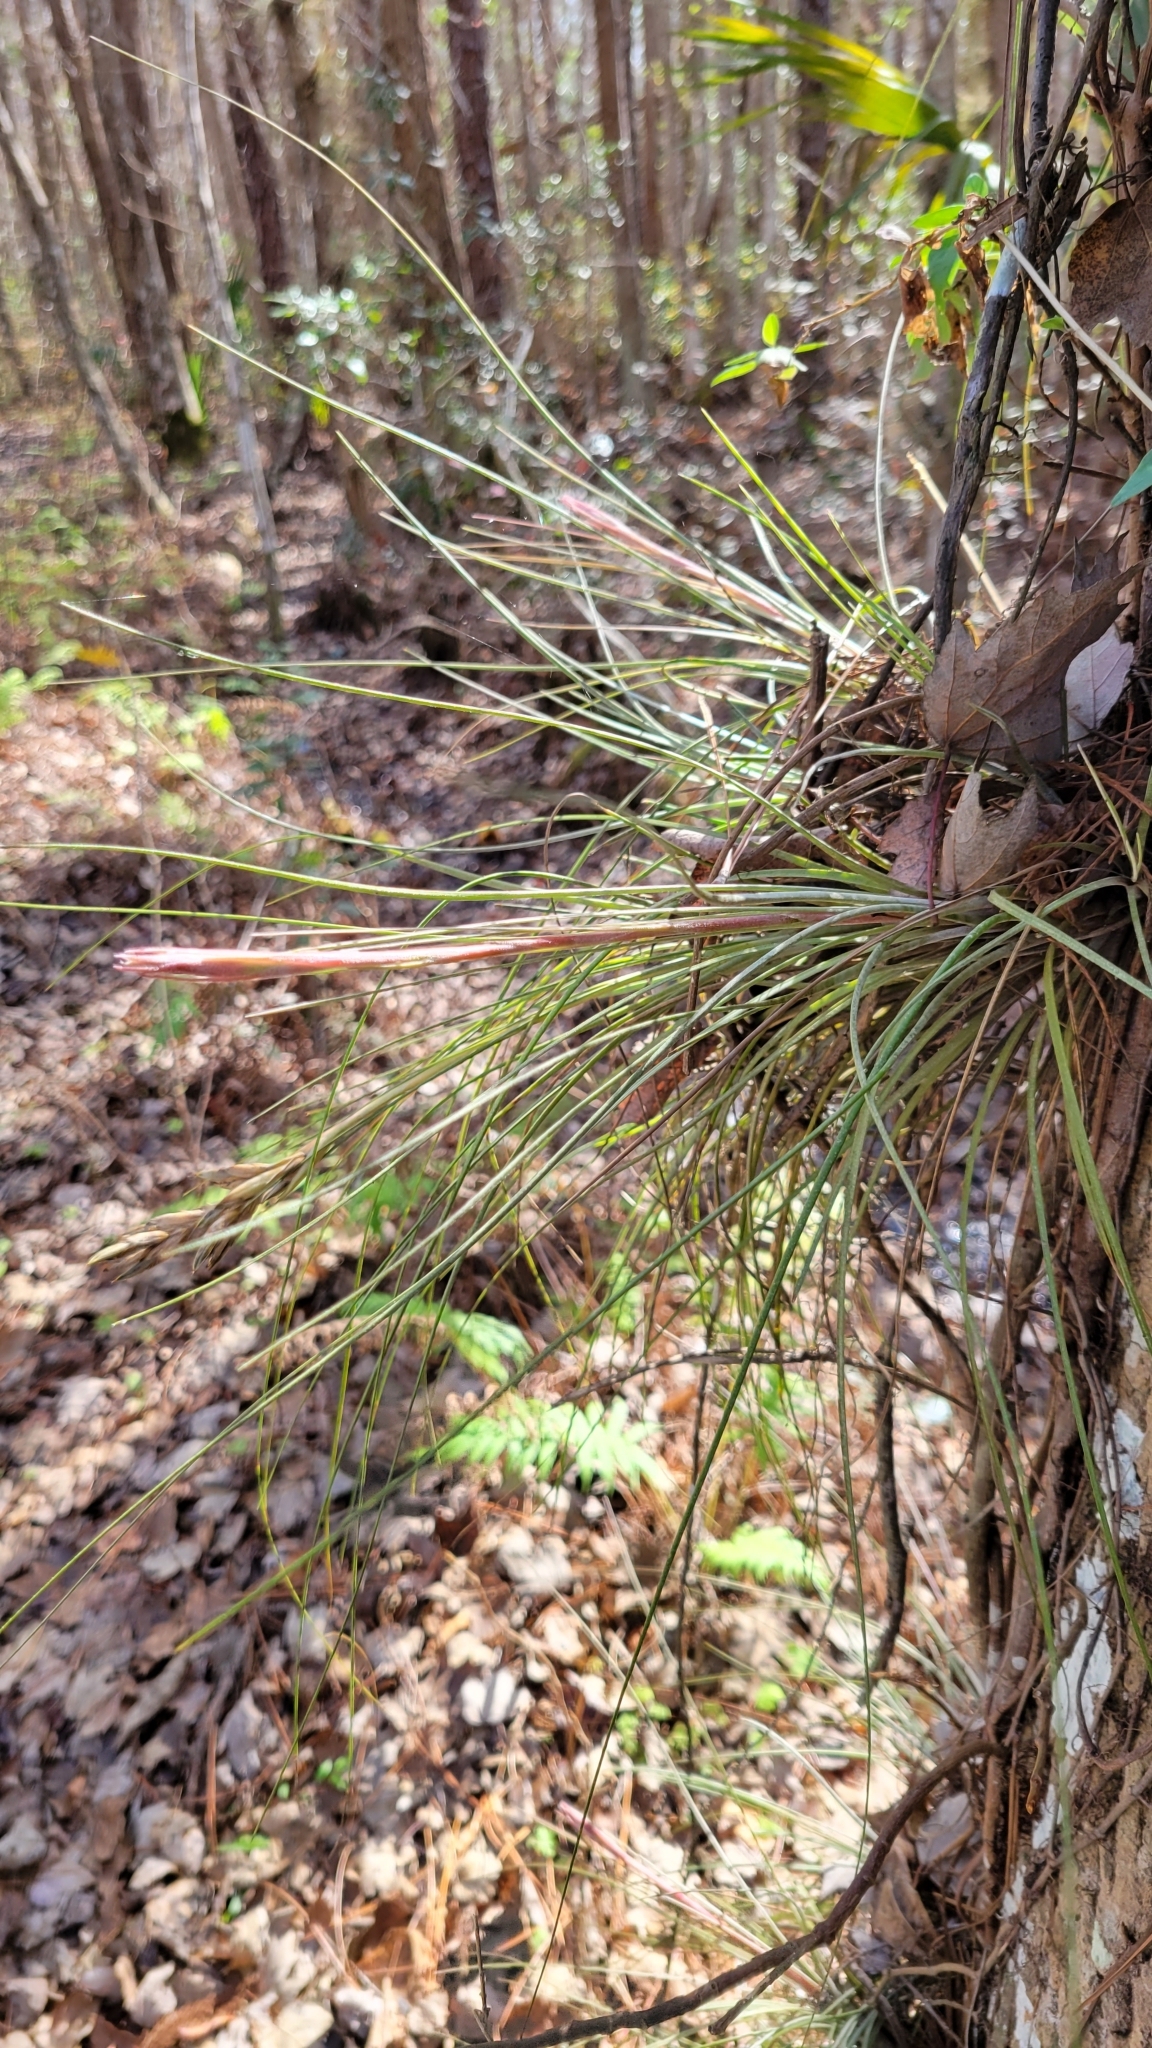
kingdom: Plantae
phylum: Tracheophyta
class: Liliopsida
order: Poales
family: Bromeliaceae
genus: Tillandsia
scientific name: Tillandsia bartramii
